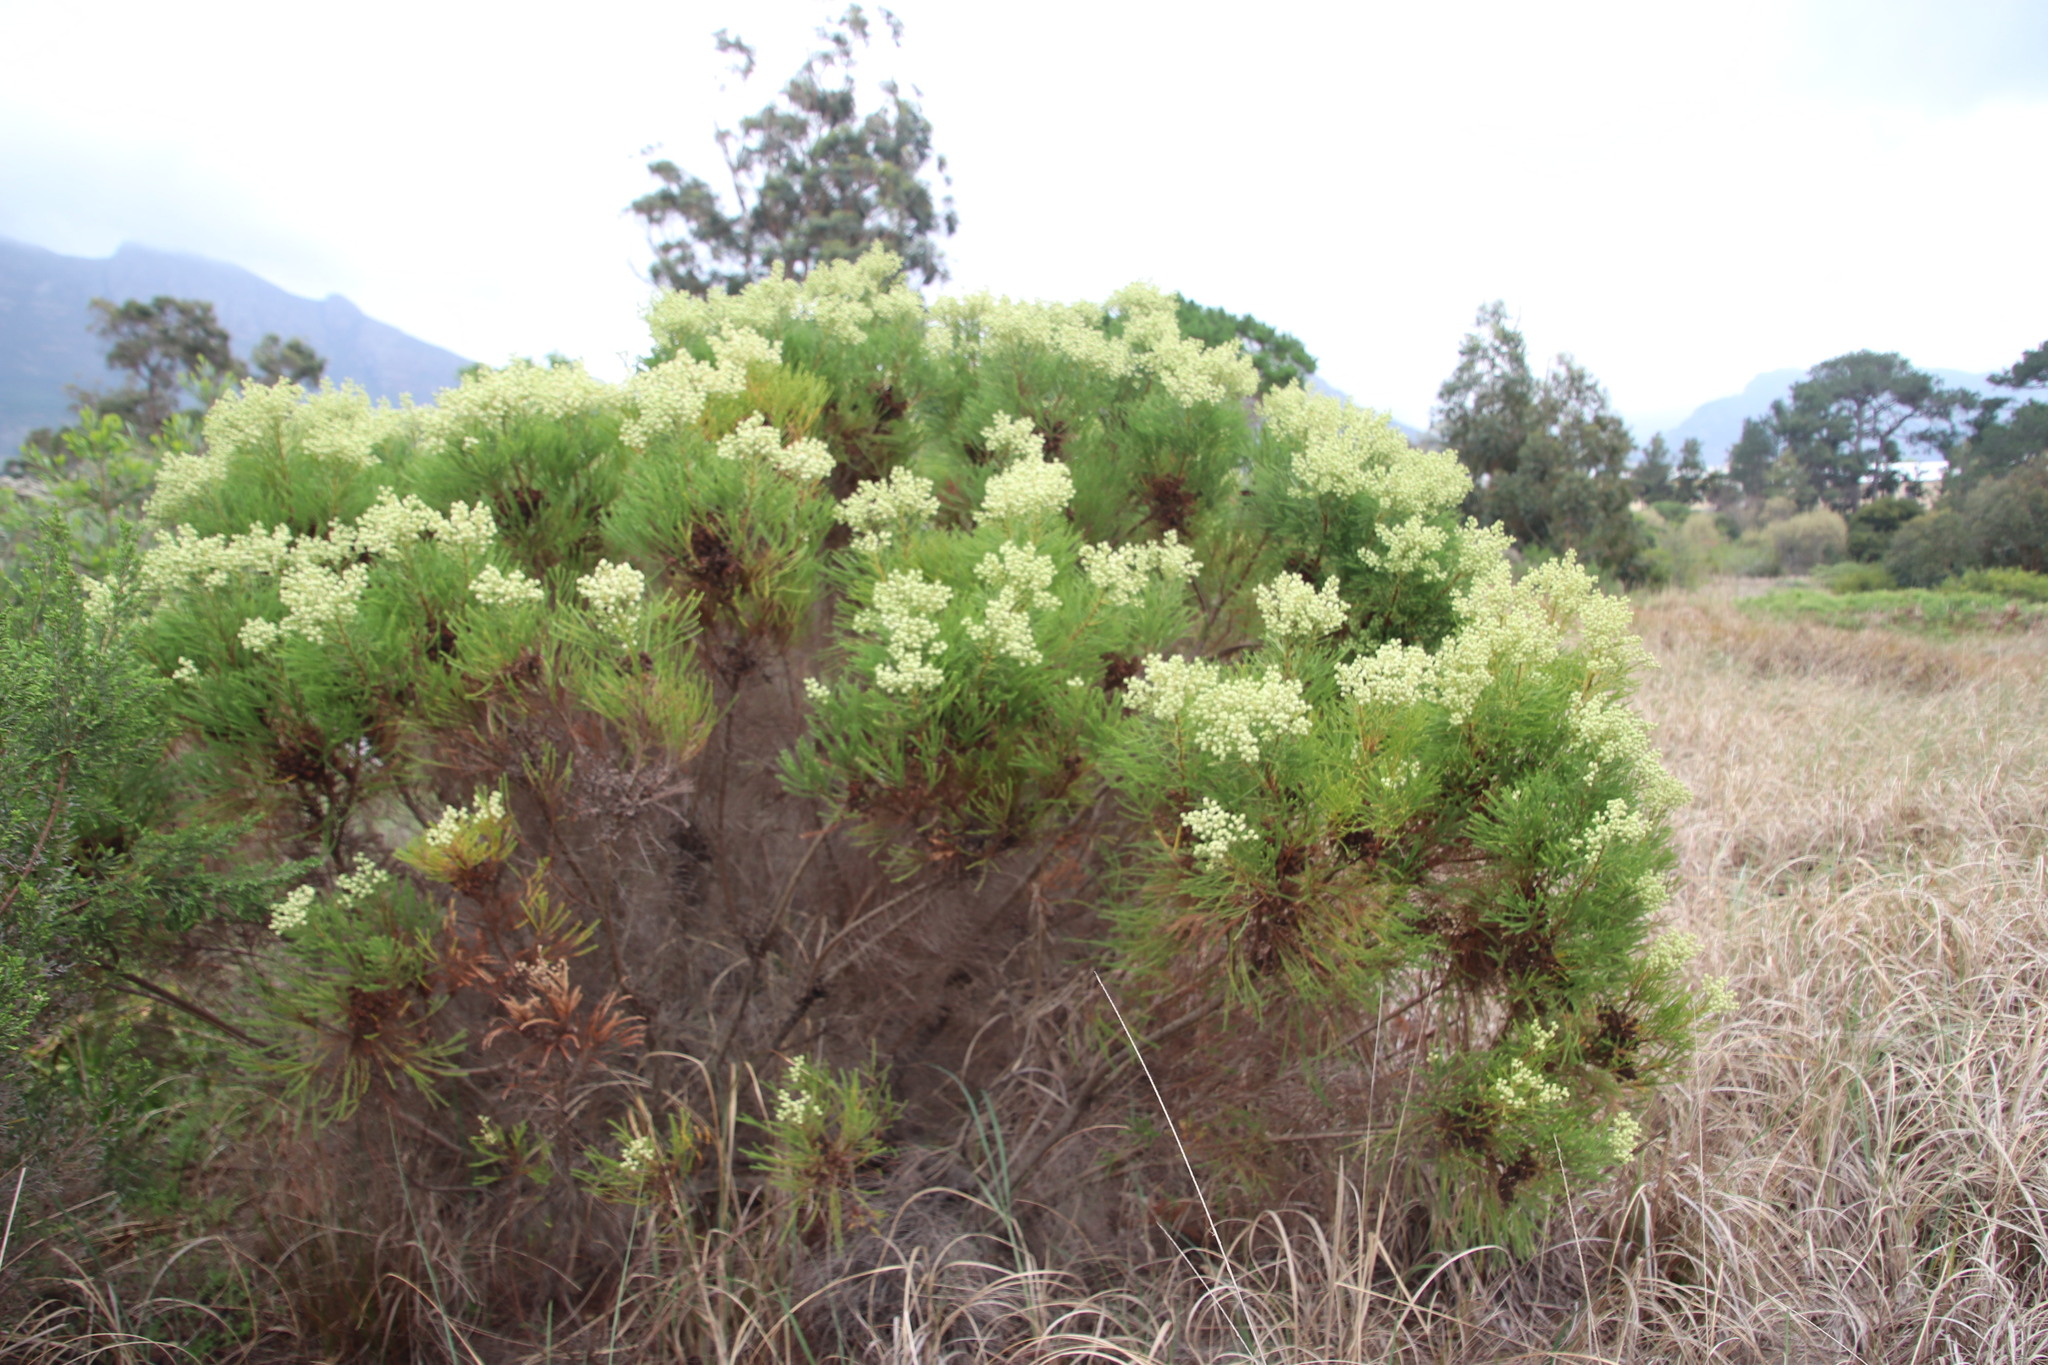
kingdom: Plantae
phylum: Tracheophyta
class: Magnoliopsida
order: Bruniales
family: Bruniaceae
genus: Berzelia
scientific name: Berzelia lanuginosa
